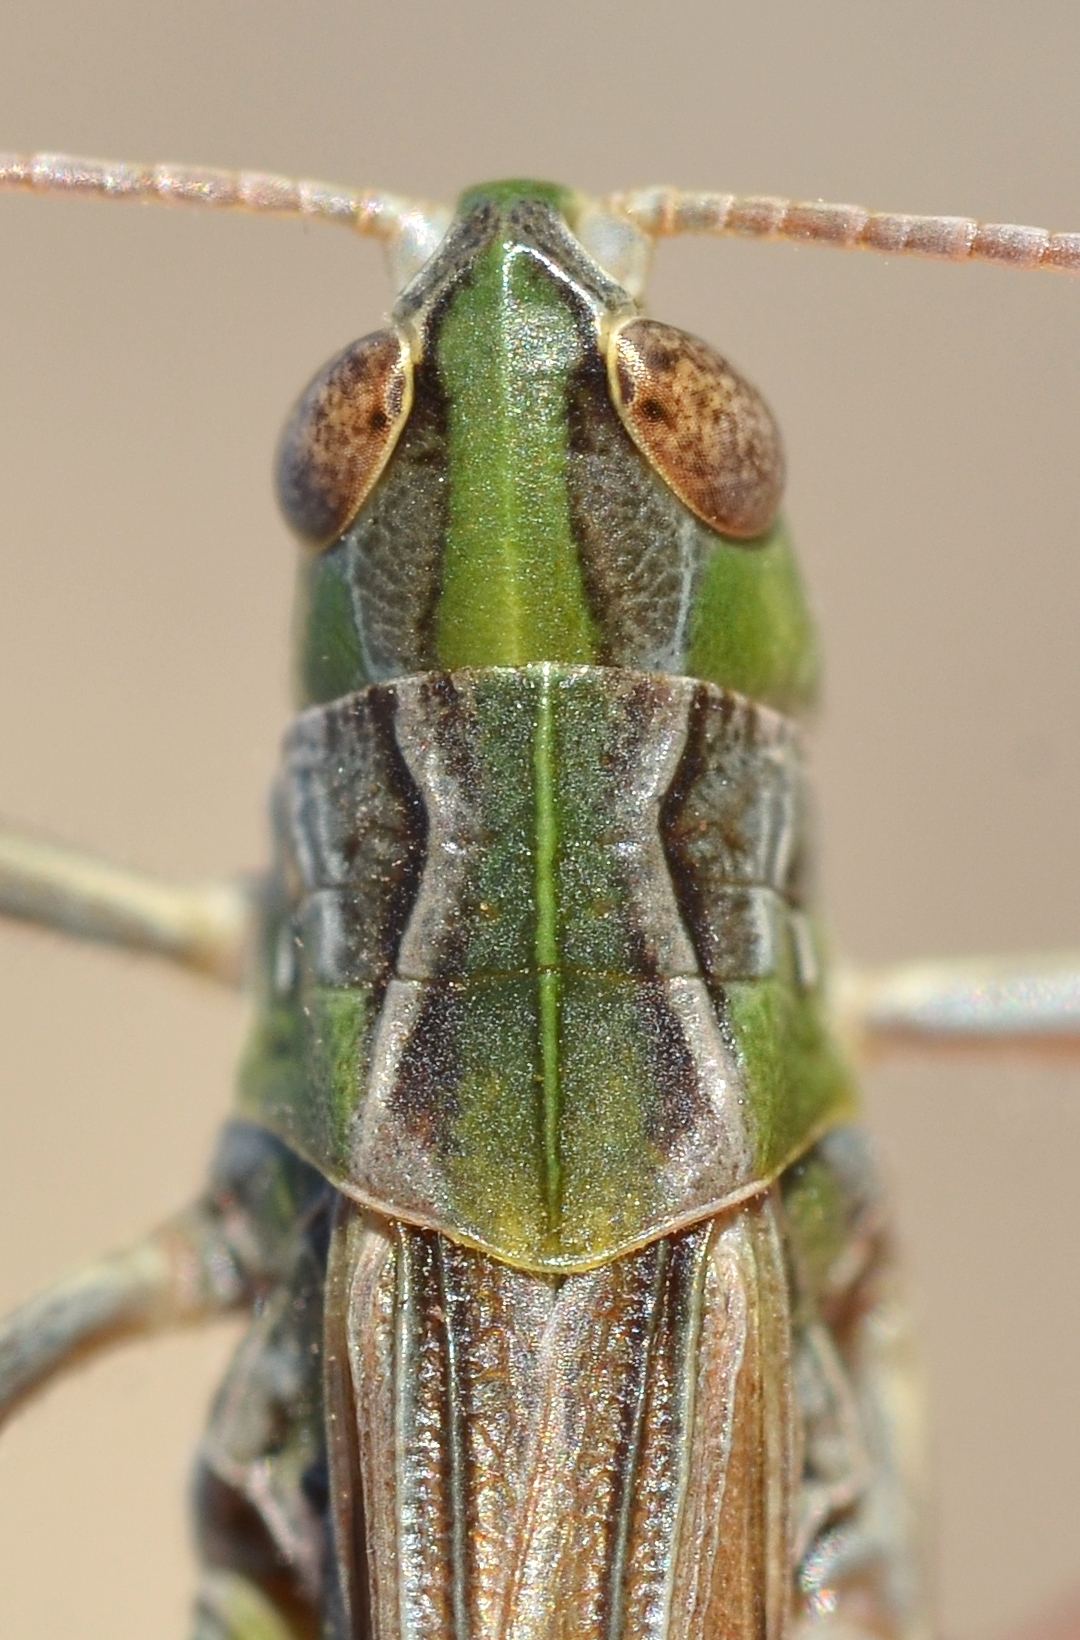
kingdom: Animalia
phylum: Arthropoda
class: Insecta
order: Orthoptera
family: Acrididae
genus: Stenobothrus
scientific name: Stenobothrus nigromaculatus
